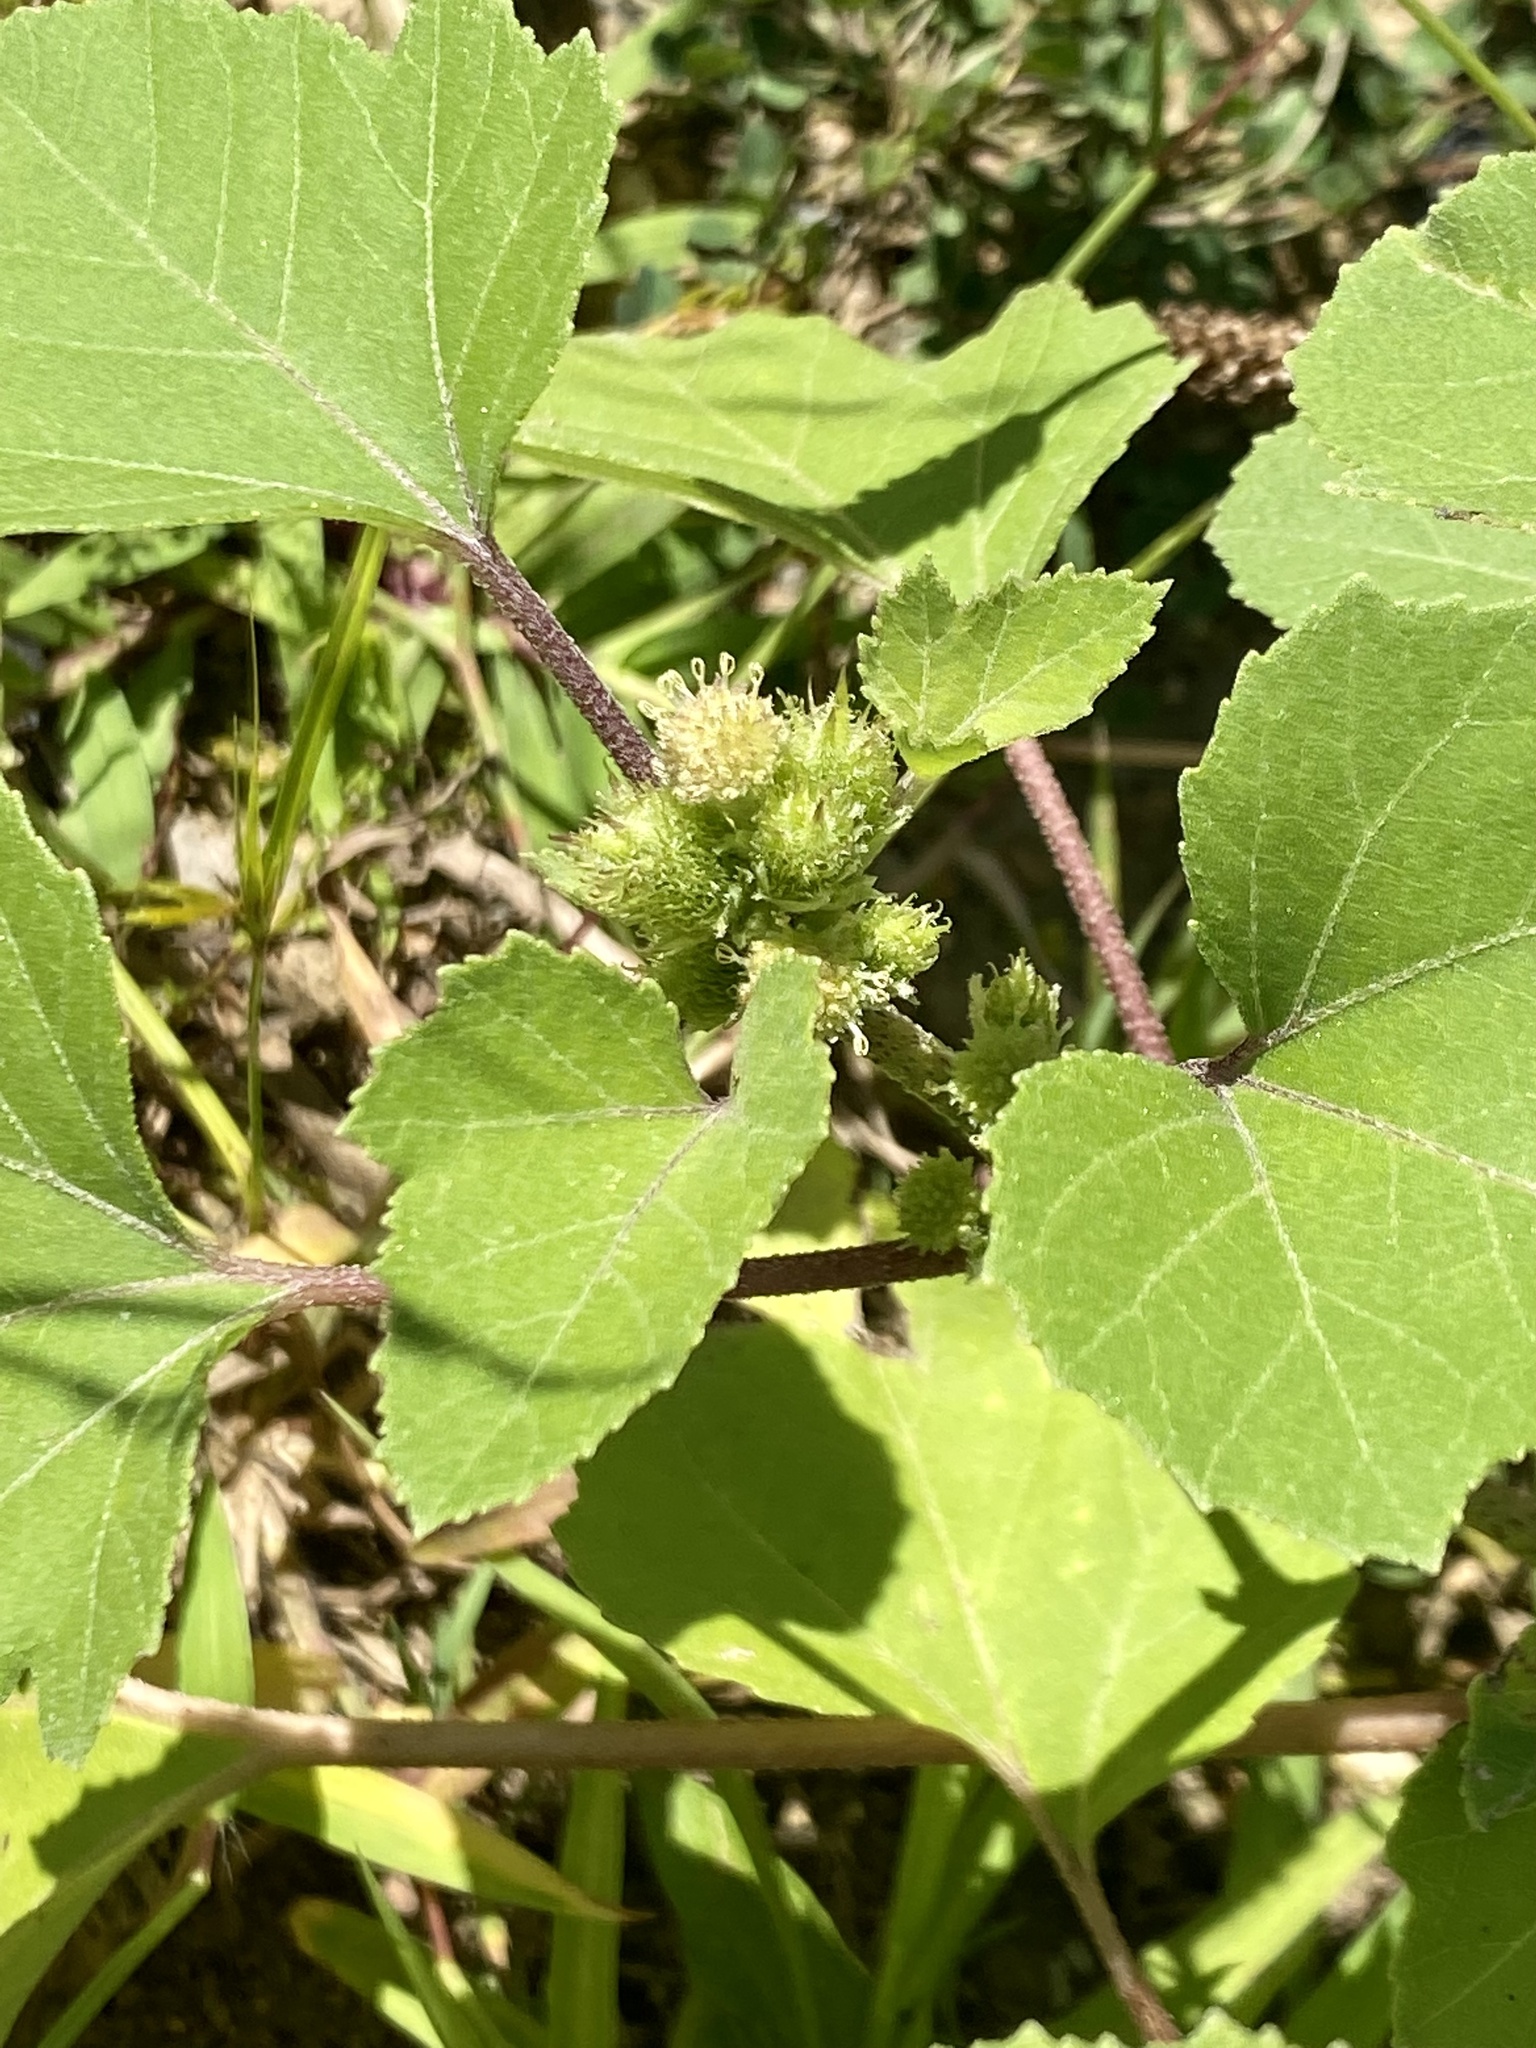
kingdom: Plantae
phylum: Tracheophyta
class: Magnoliopsida
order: Asterales
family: Asteraceae
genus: Xanthium
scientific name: Xanthium strumarium
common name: Rough cocklebur
